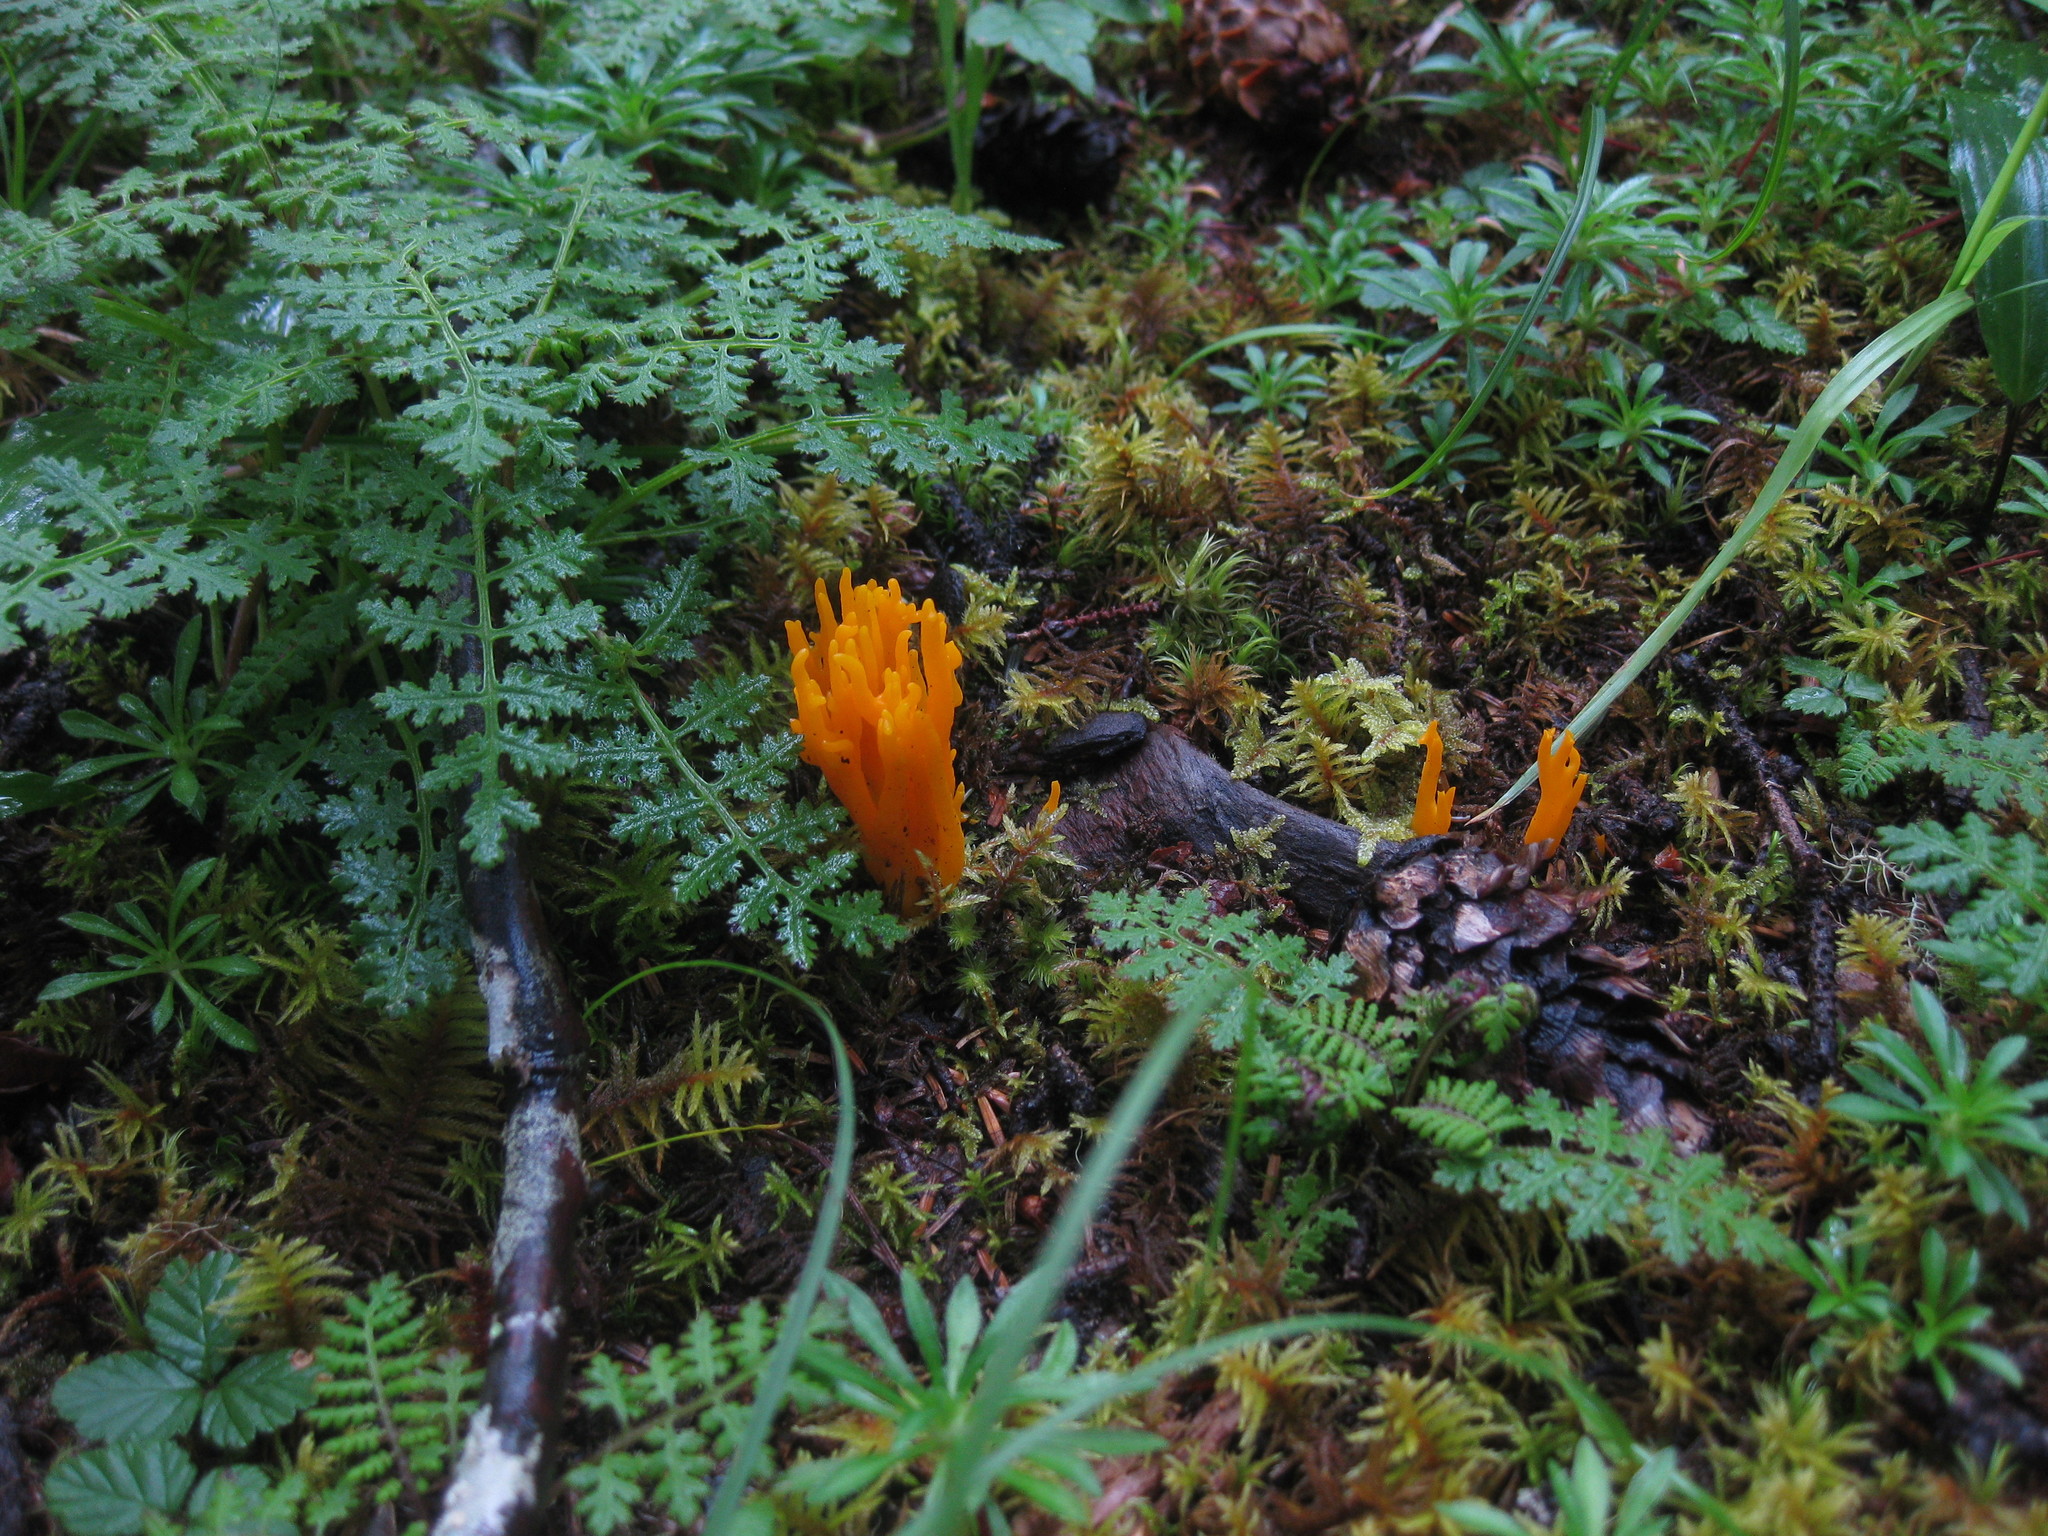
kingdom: Fungi
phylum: Basidiomycota
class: Dacrymycetes
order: Dacrymycetales
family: Dacrymycetaceae
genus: Calocera
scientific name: Calocera viscosa
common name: Yellow stagshorn
